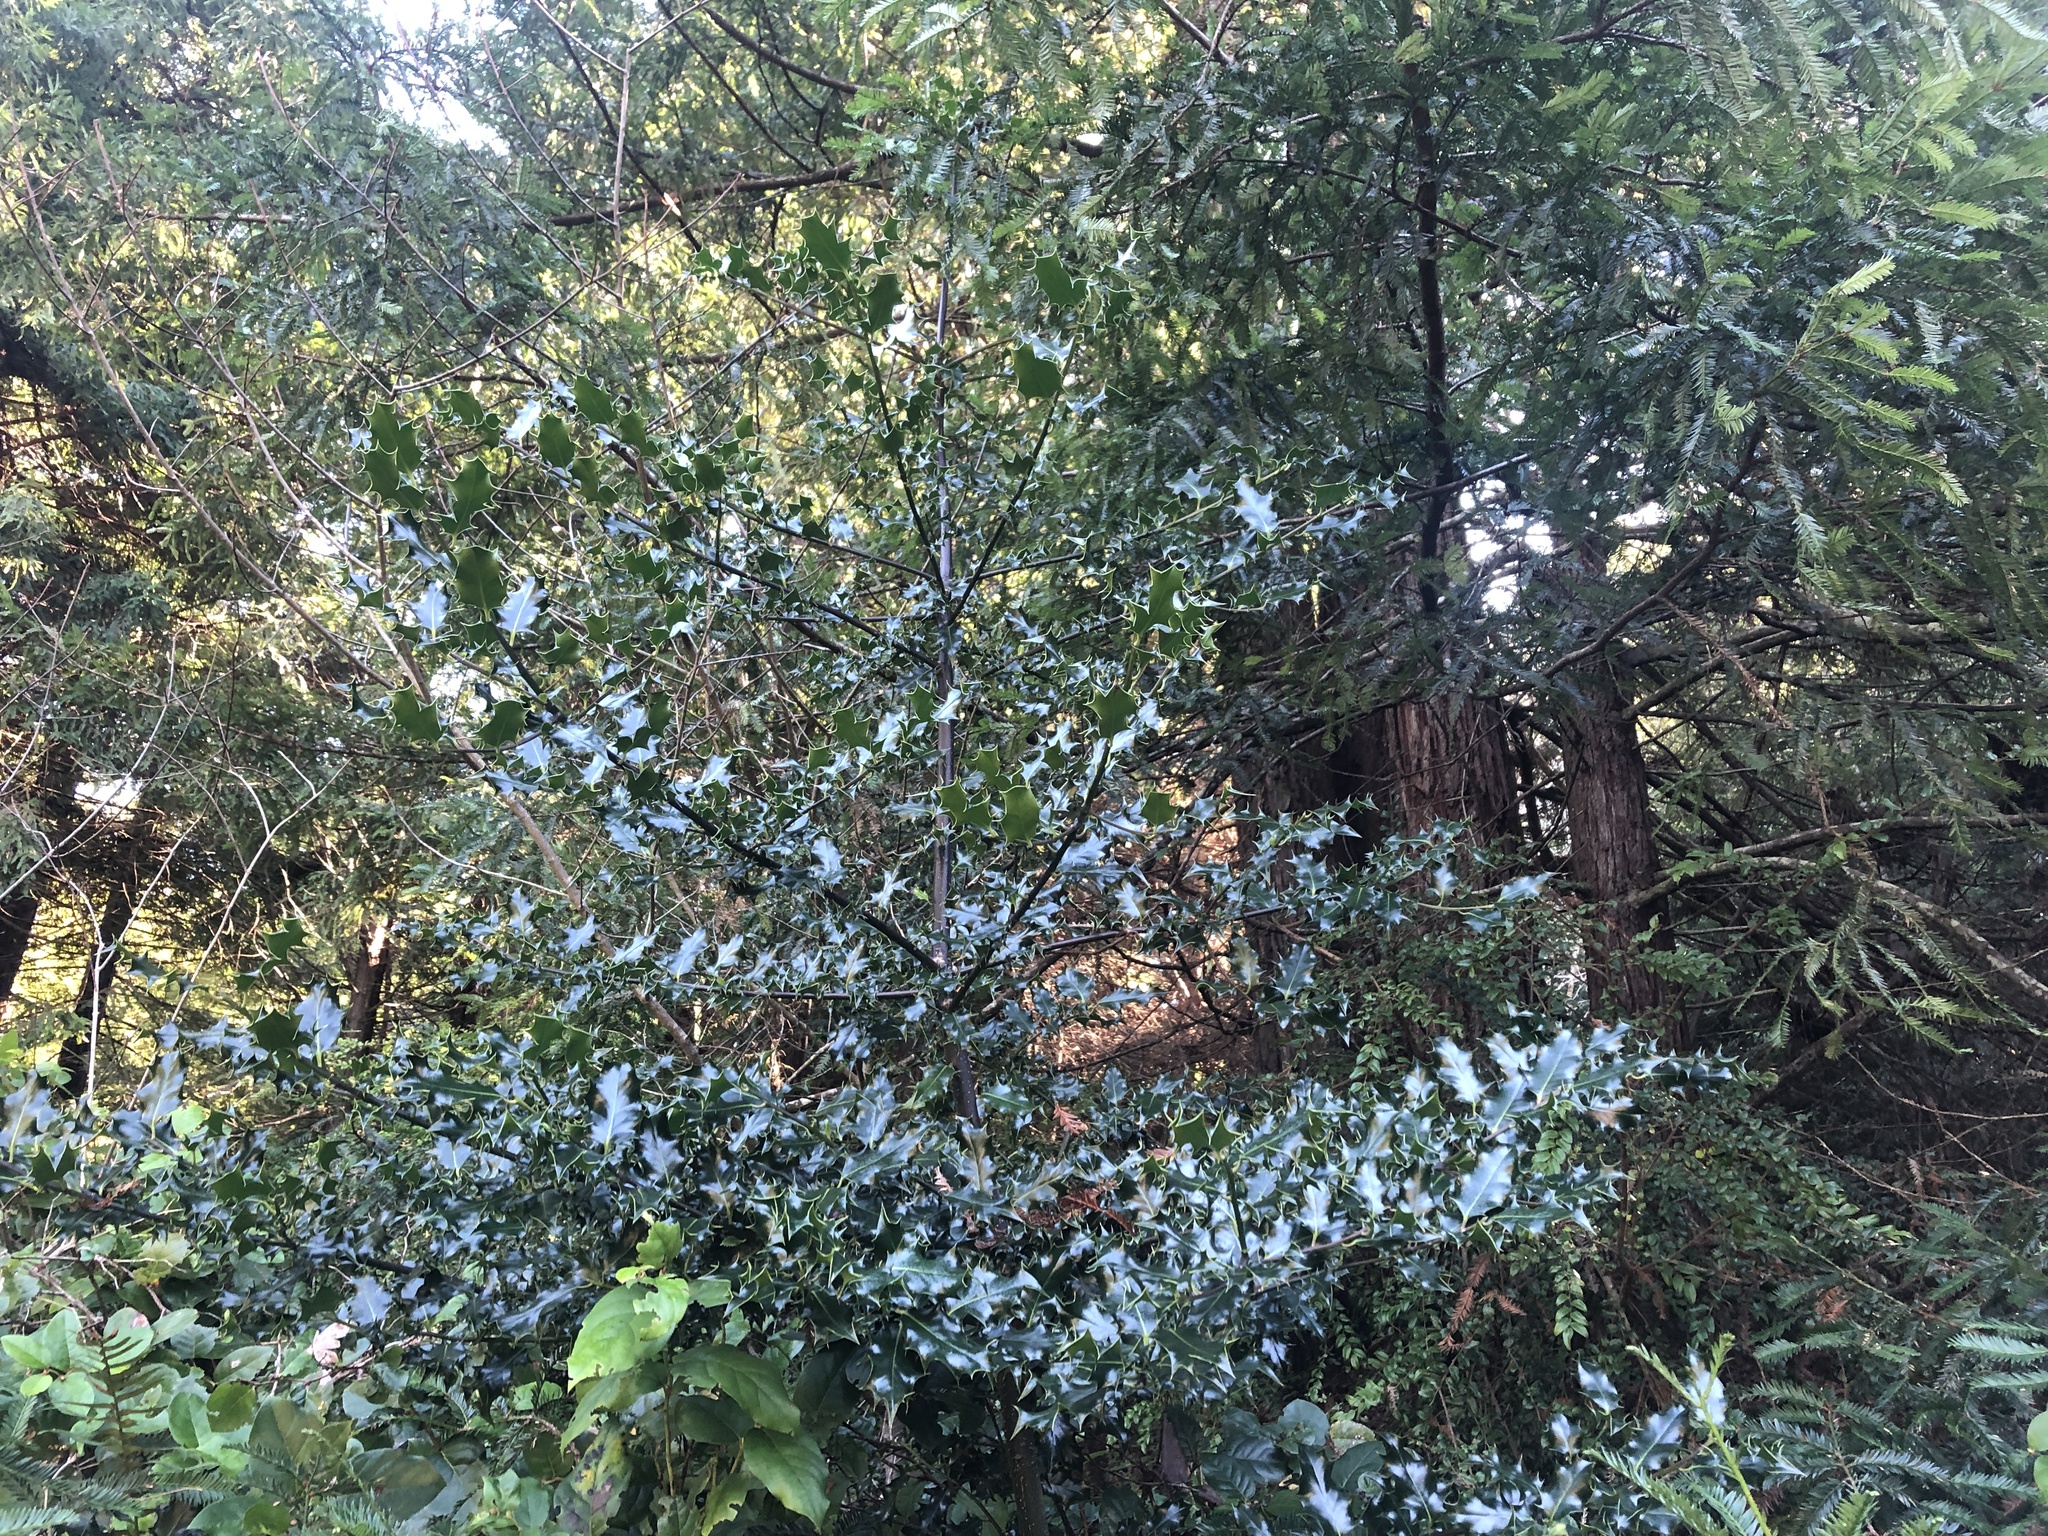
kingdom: Plantae
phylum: Tracheophyta
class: Magnoliopsida
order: Aquifoliales
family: Aquifoliaceae
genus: Ilex
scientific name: Ilex aquifolium
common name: English holly
